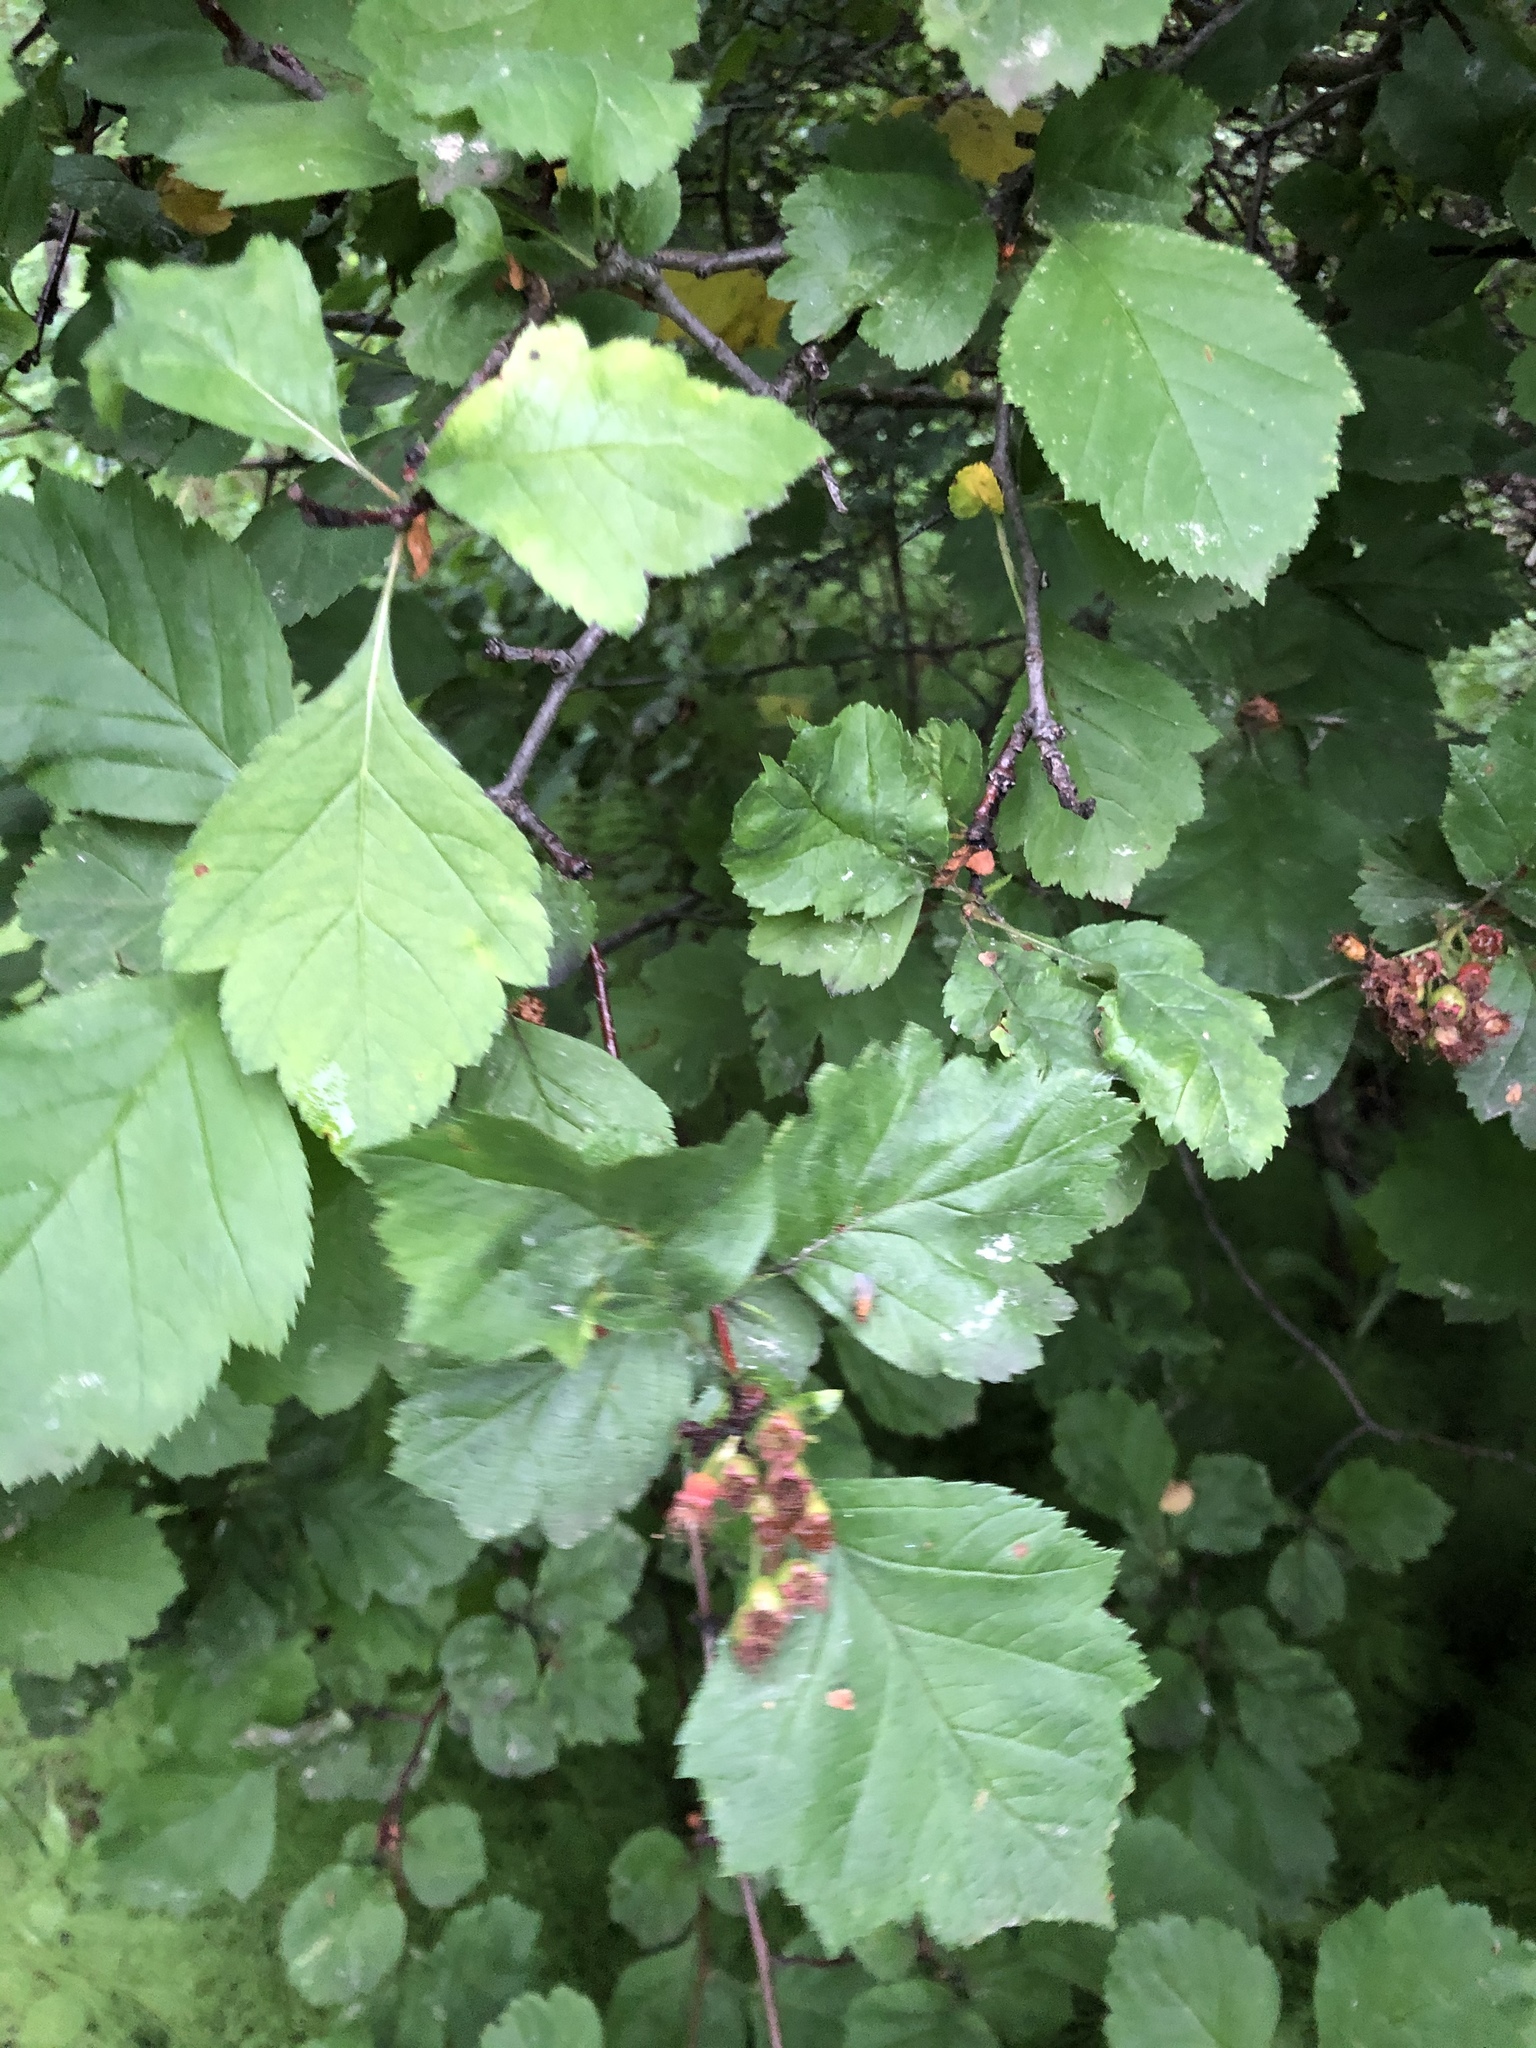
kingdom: Plantae
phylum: Tracheophyta
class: Magnoliopsida
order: Rosales
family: Rosaceae
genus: Crataegus
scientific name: Crataegus sanguinea
